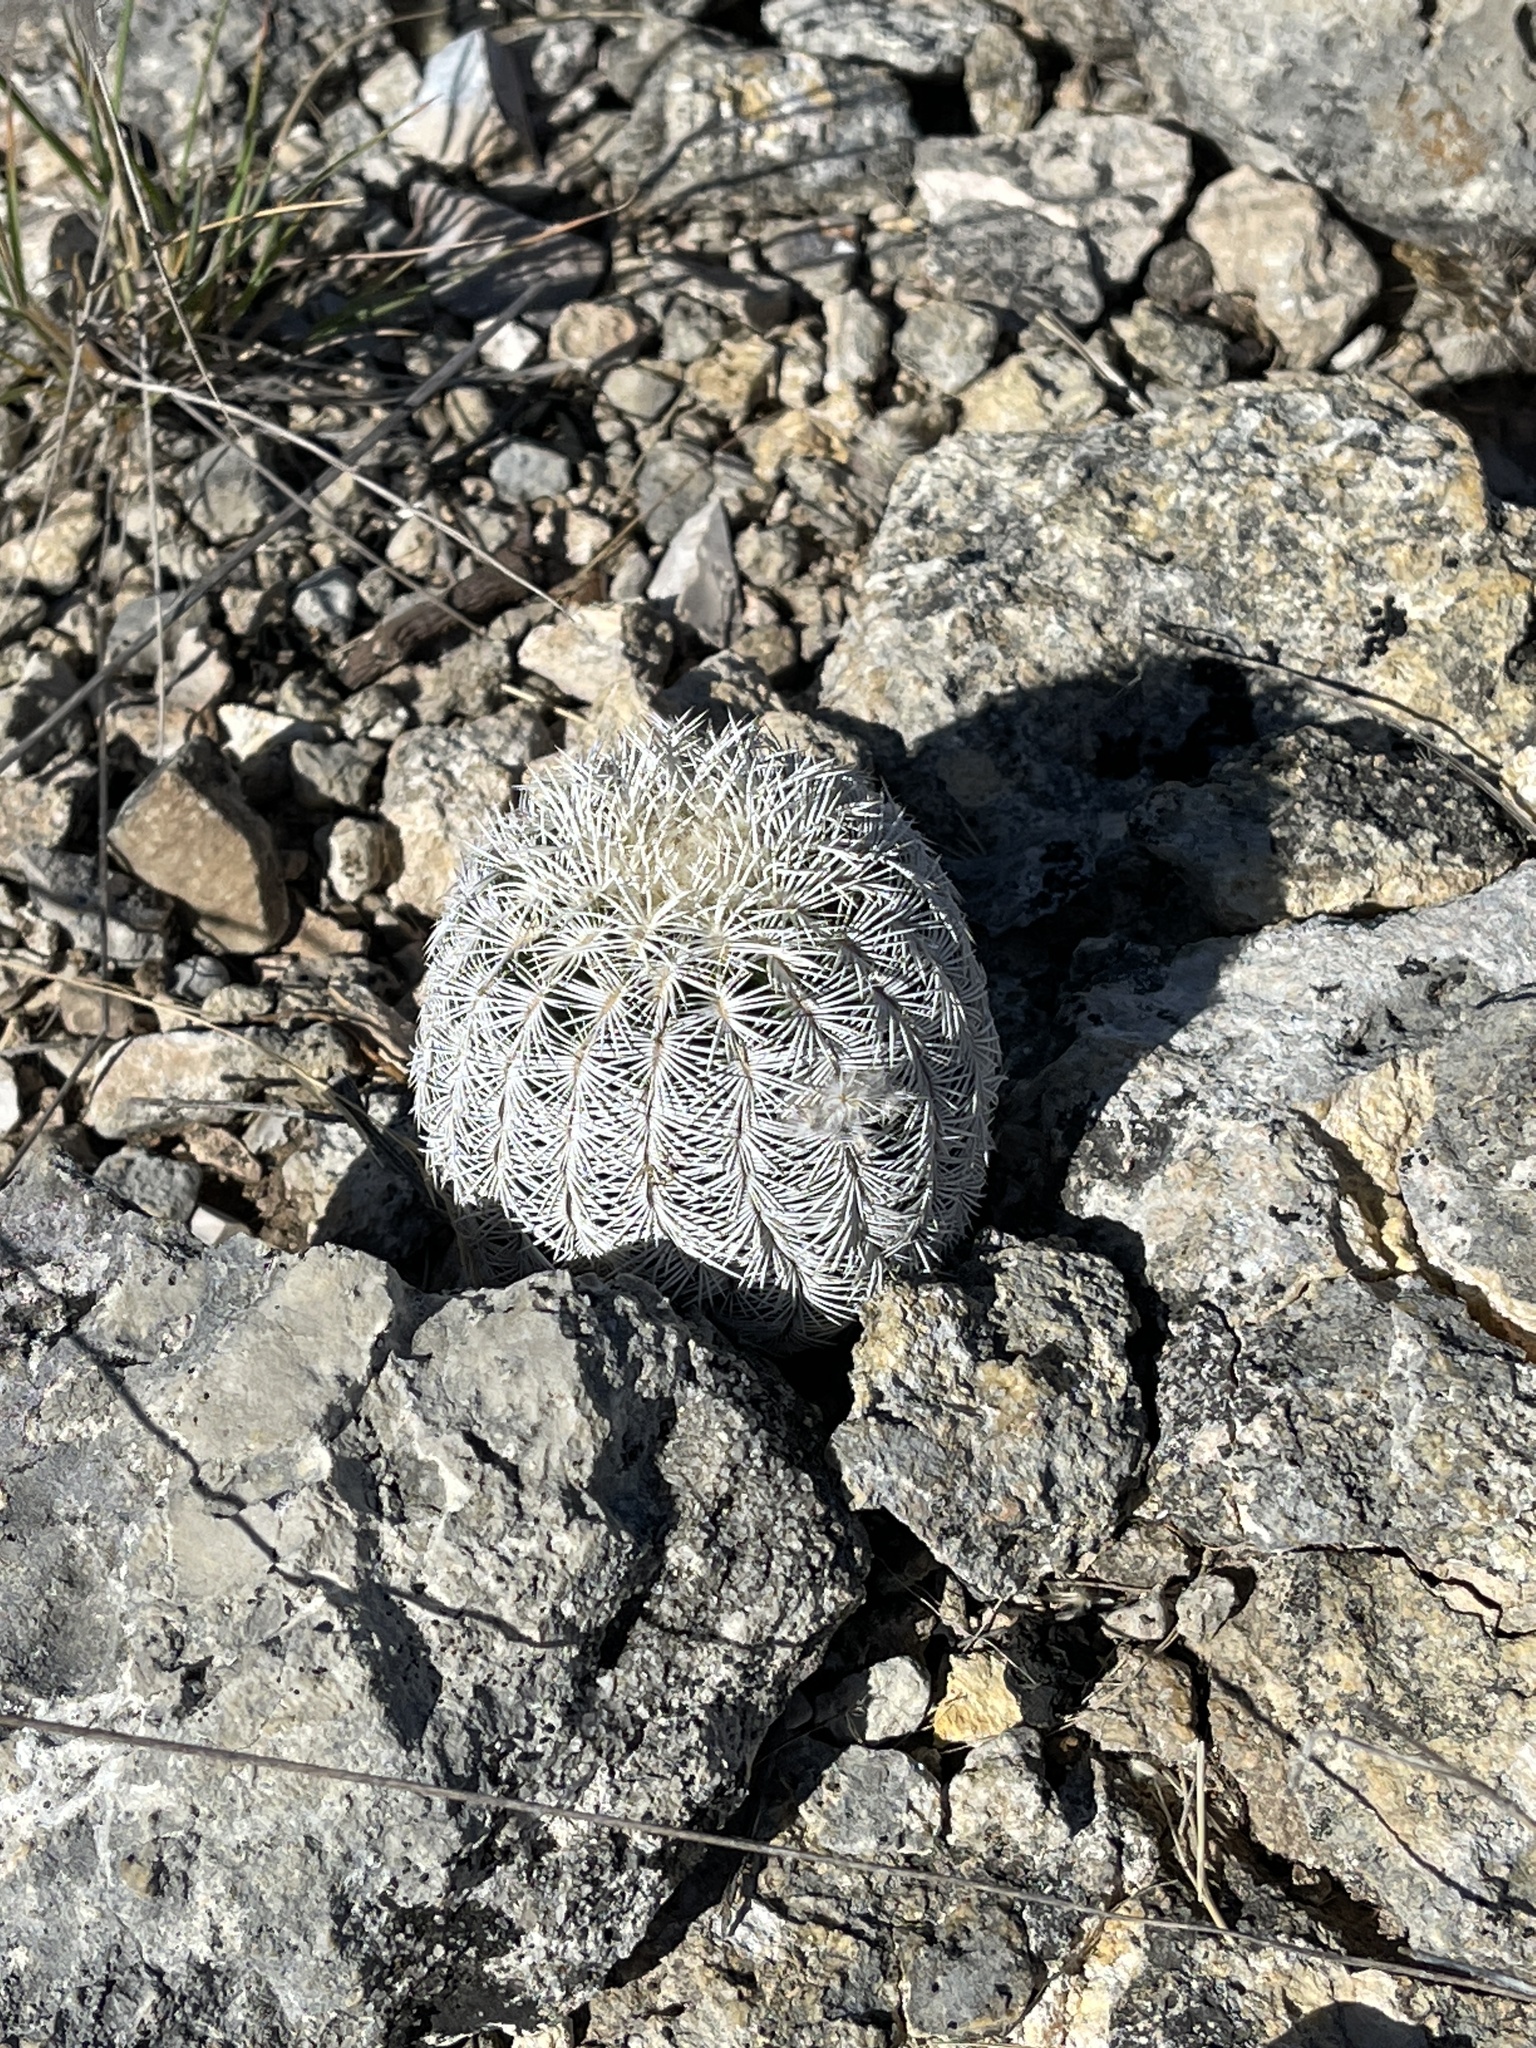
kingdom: Plantae
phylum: Tracheophyta
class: Magnoliopsida
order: Caryophyllales
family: Cactaceae
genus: Echinocereus
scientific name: Echinocereus reichenbachii
